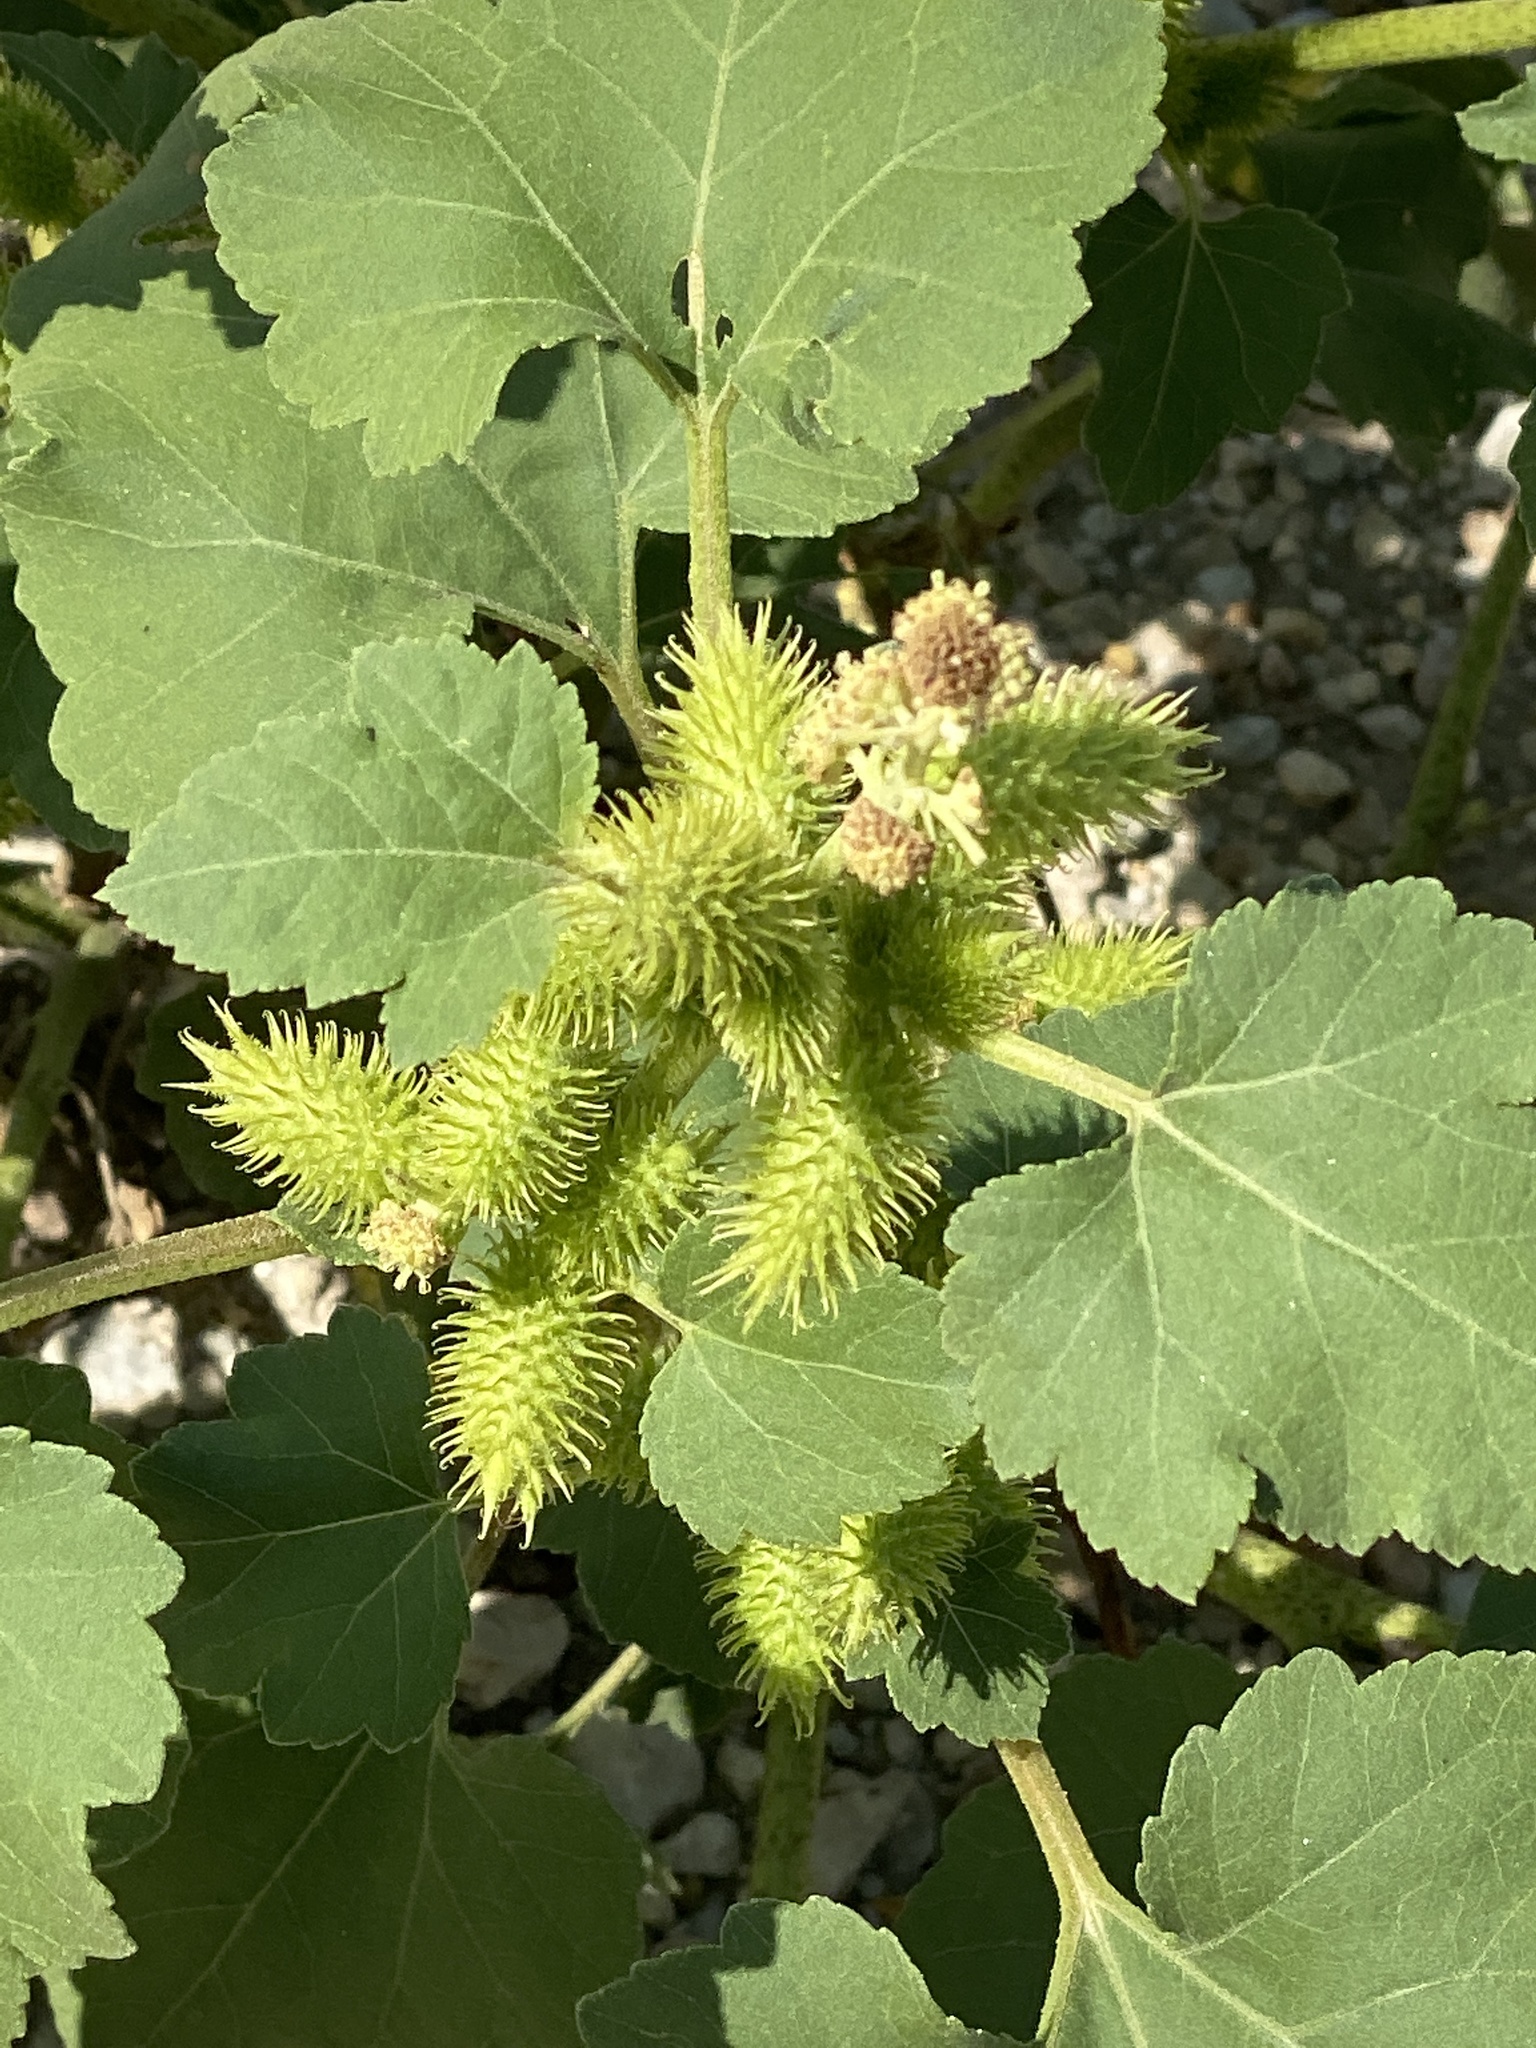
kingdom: Plantae
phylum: Tracheophyta
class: Magnoliopsida
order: Asterales
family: Asteraceae
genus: Xanthium
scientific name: Xanthium strumarium
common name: Rough cocklebur
